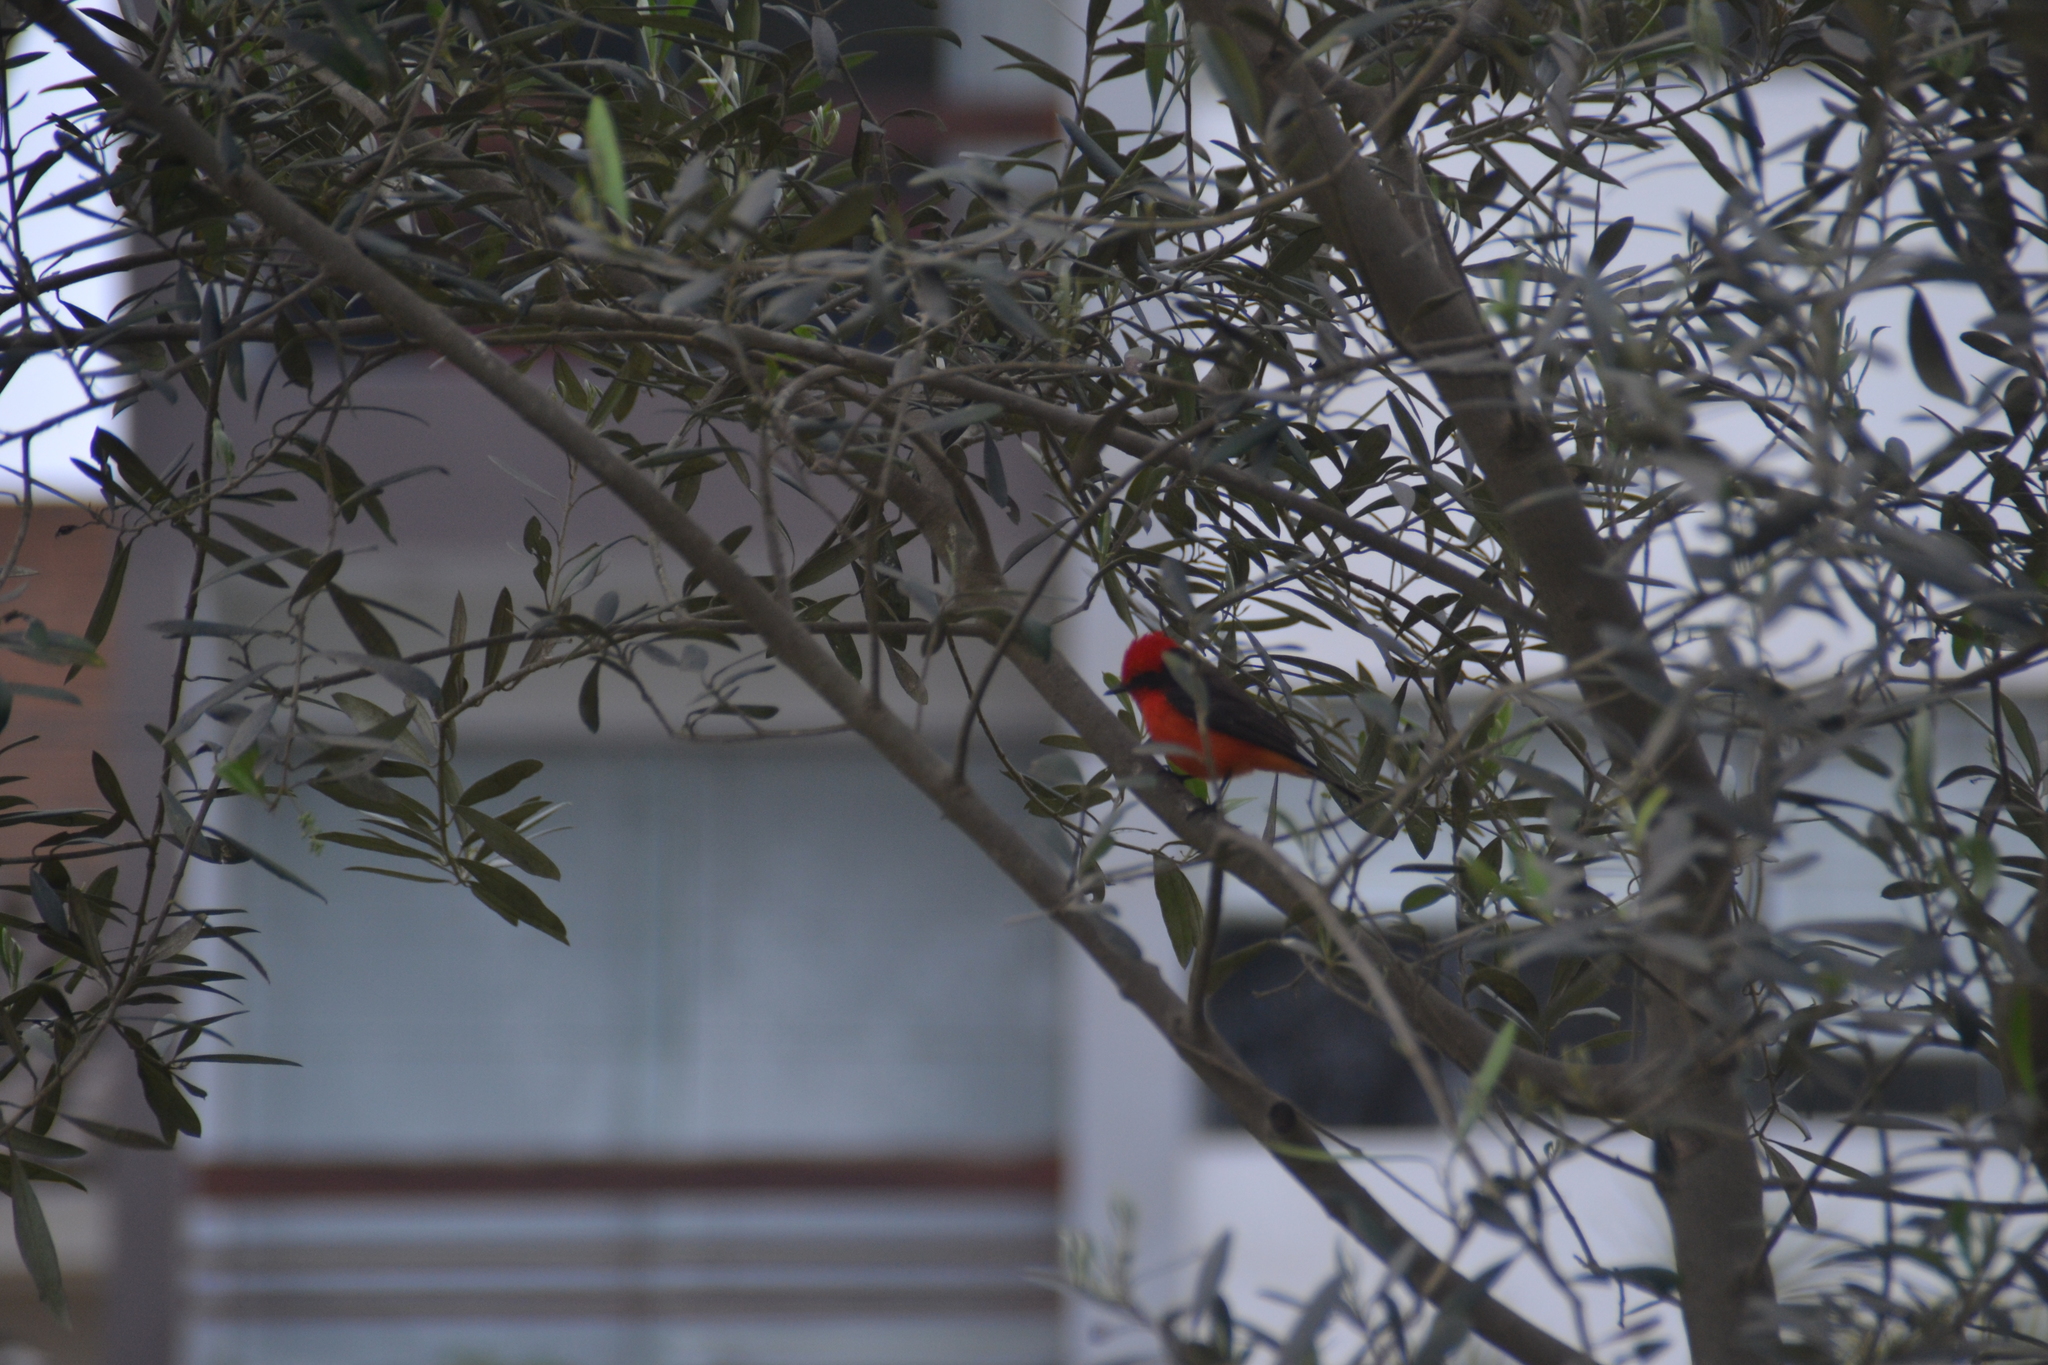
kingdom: Animalia
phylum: Chordata
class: Aves
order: Passeriformes
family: Tyrannidae
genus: Pyrocephalus
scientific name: Pyrocephalus rubinus
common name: Vermilion flycatcher
